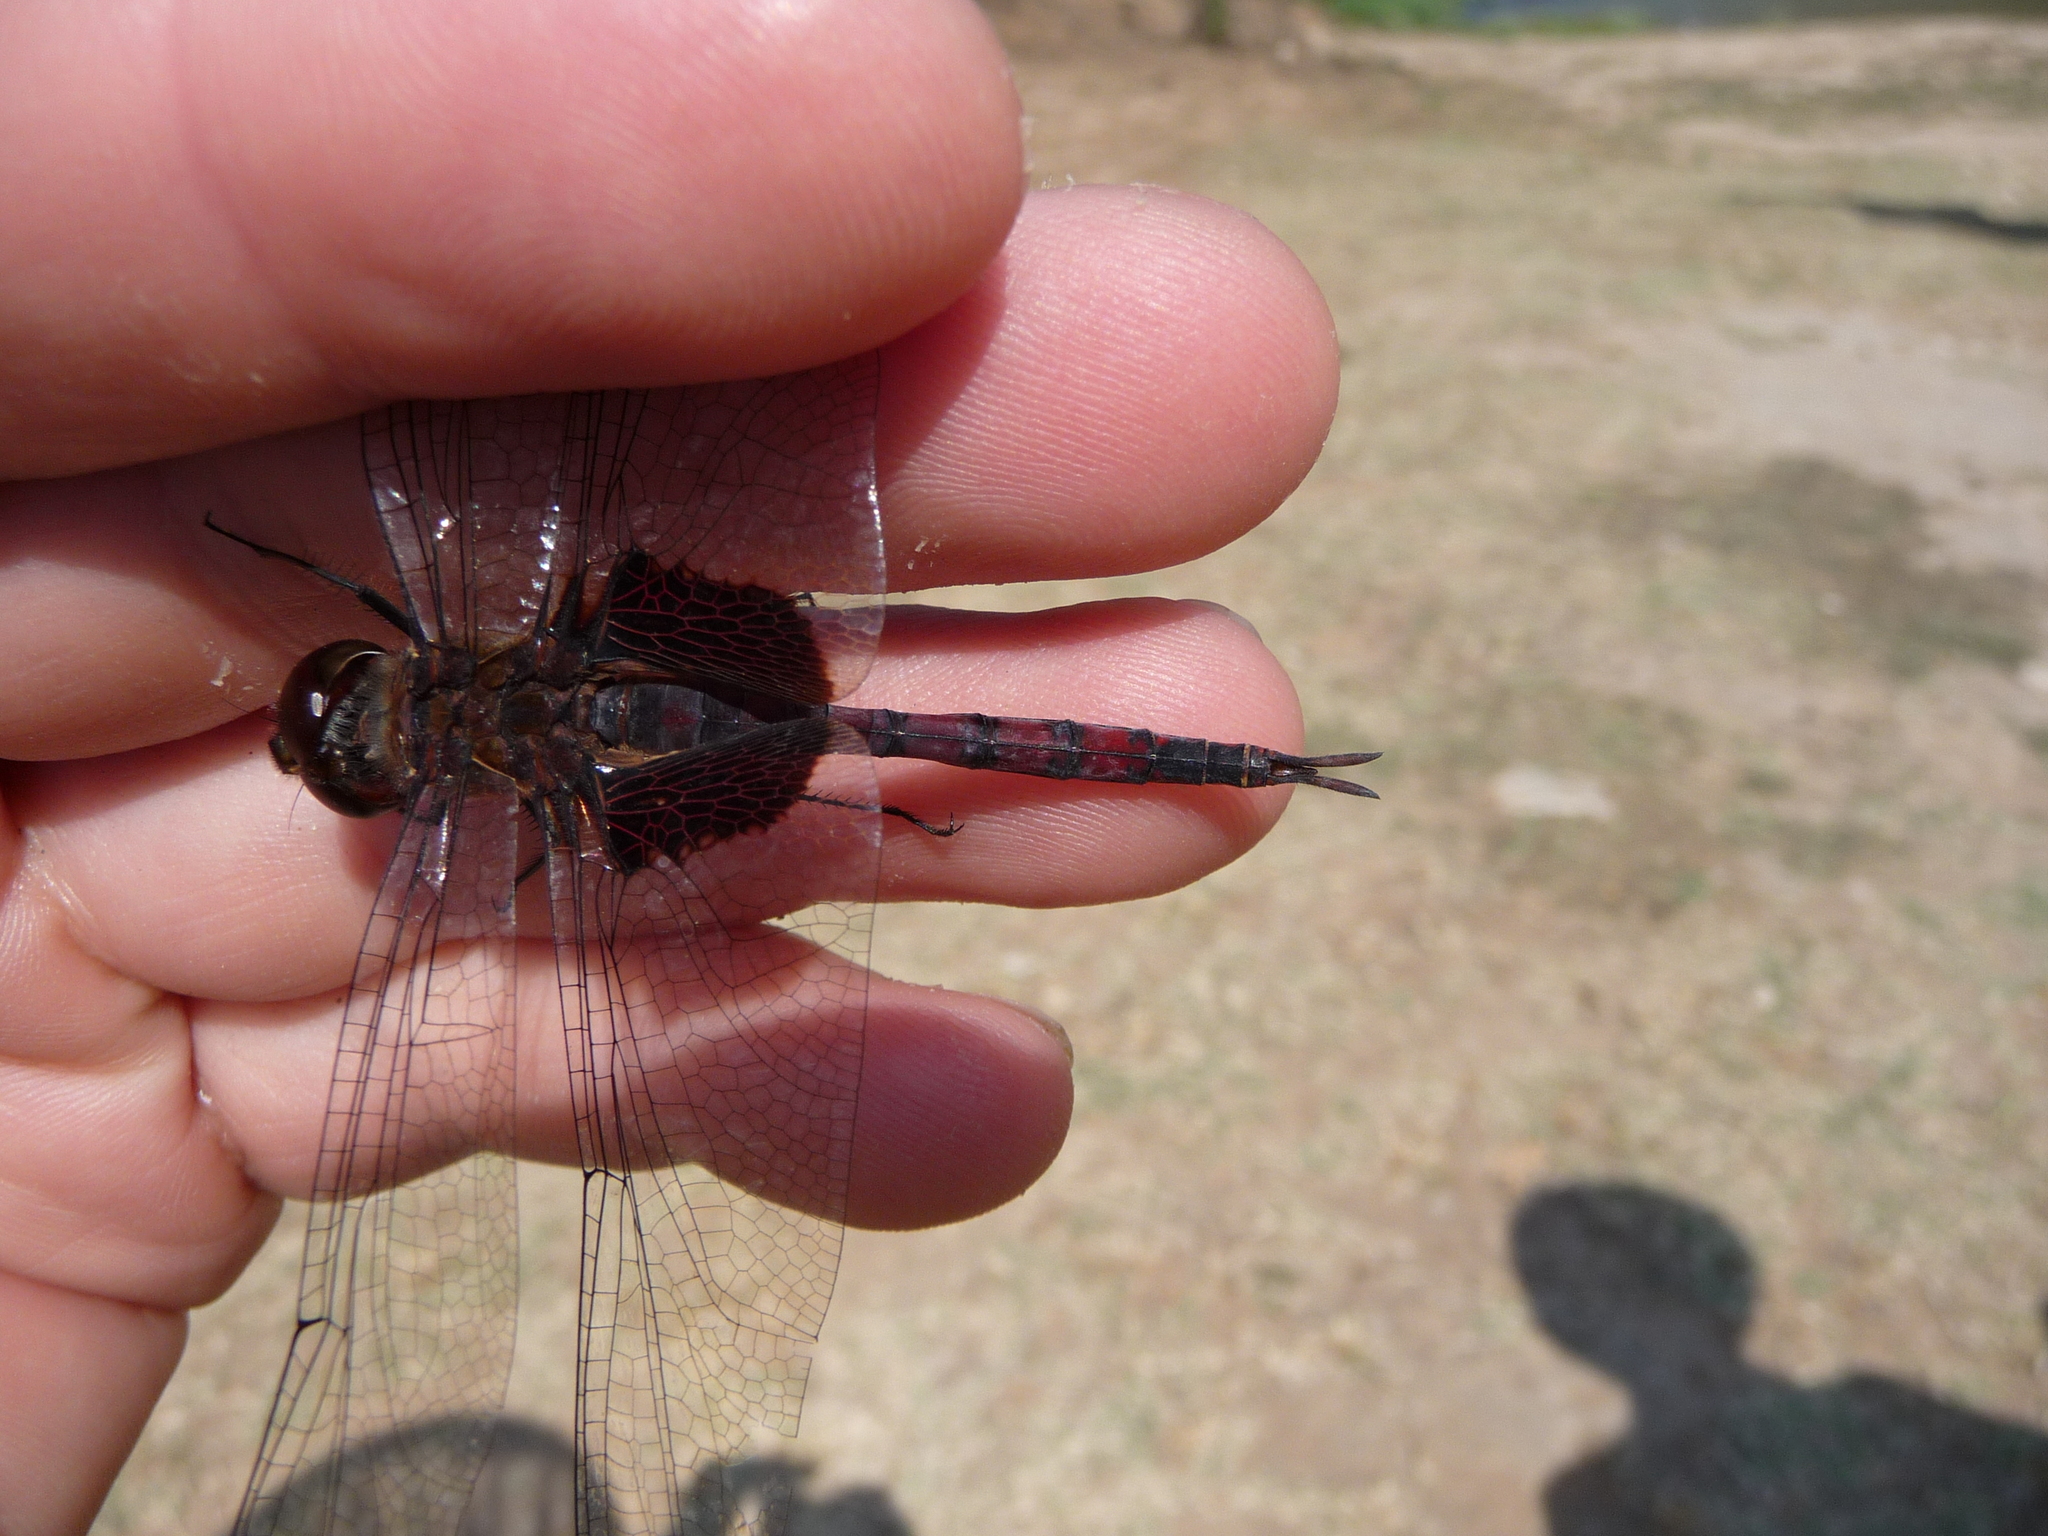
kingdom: Animalia
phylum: Arthropoda
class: Insecta
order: Odonata
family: Libellulidae
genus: Tramea
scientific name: Tramea limbata
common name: Ferruginous glider
